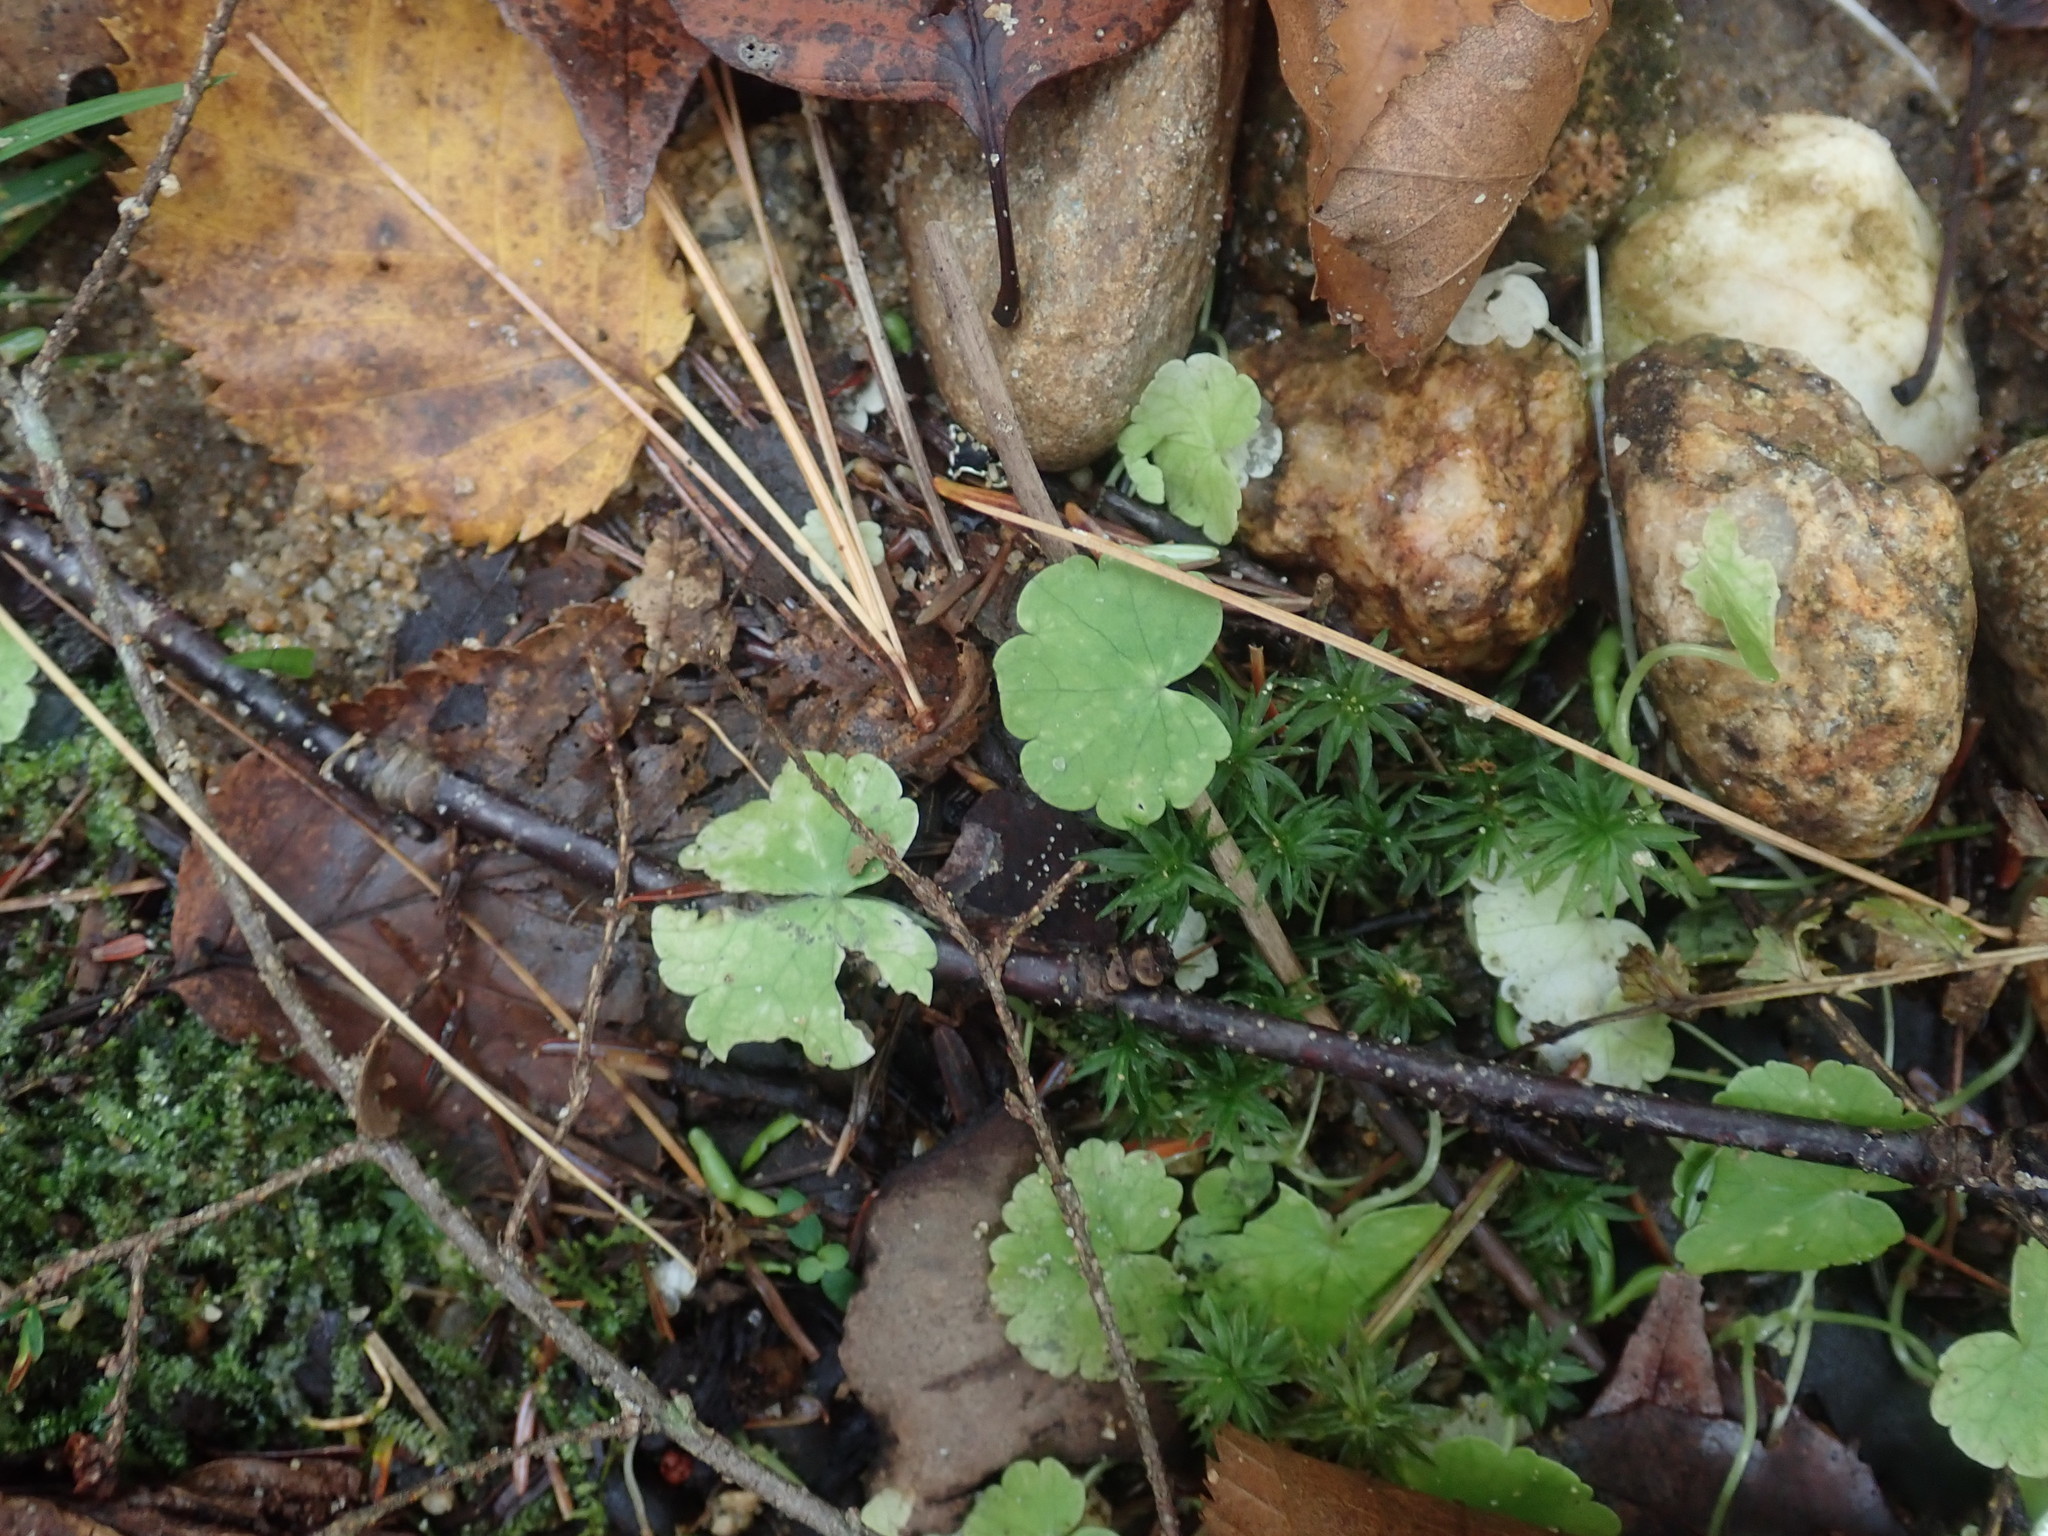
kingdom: Plantae
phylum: Tracheophyta
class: Magnoliopsida
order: Apiales
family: Araliaceae
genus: Hydrocotyle
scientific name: Hydrocotyle americana
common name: American water-pennywort
